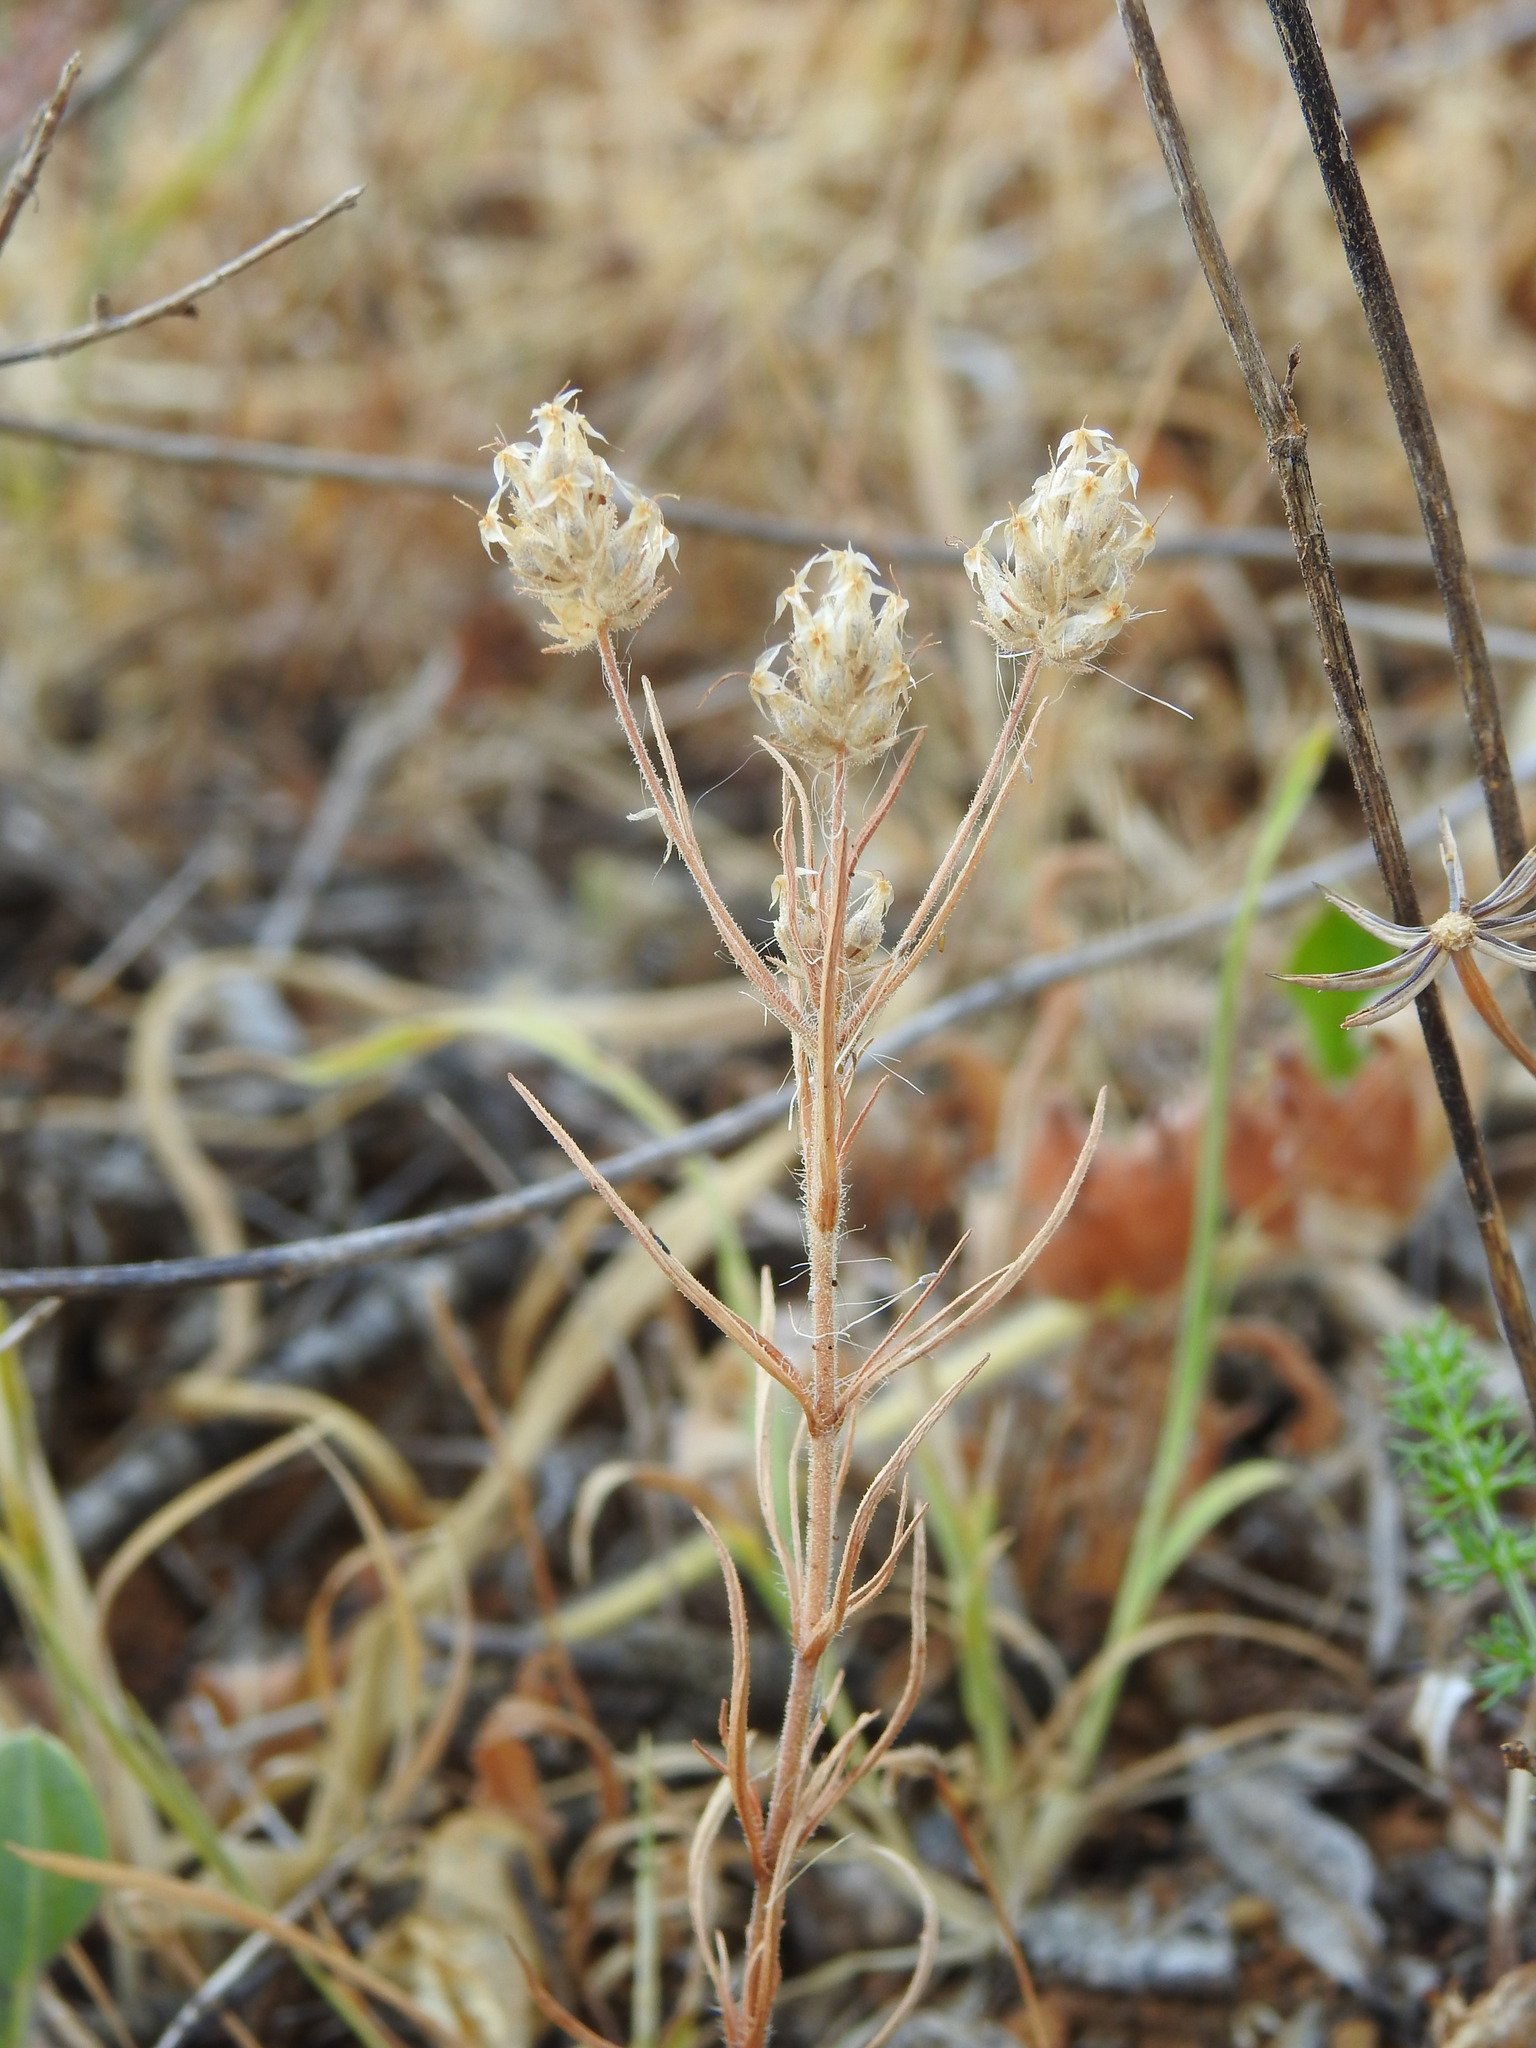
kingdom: Plantae
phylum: Tracheophyta
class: Magnoliopsida
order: Lamiales
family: Plantaginaceae
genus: Plantago
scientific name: Plantago afra
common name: Glandular plantain
